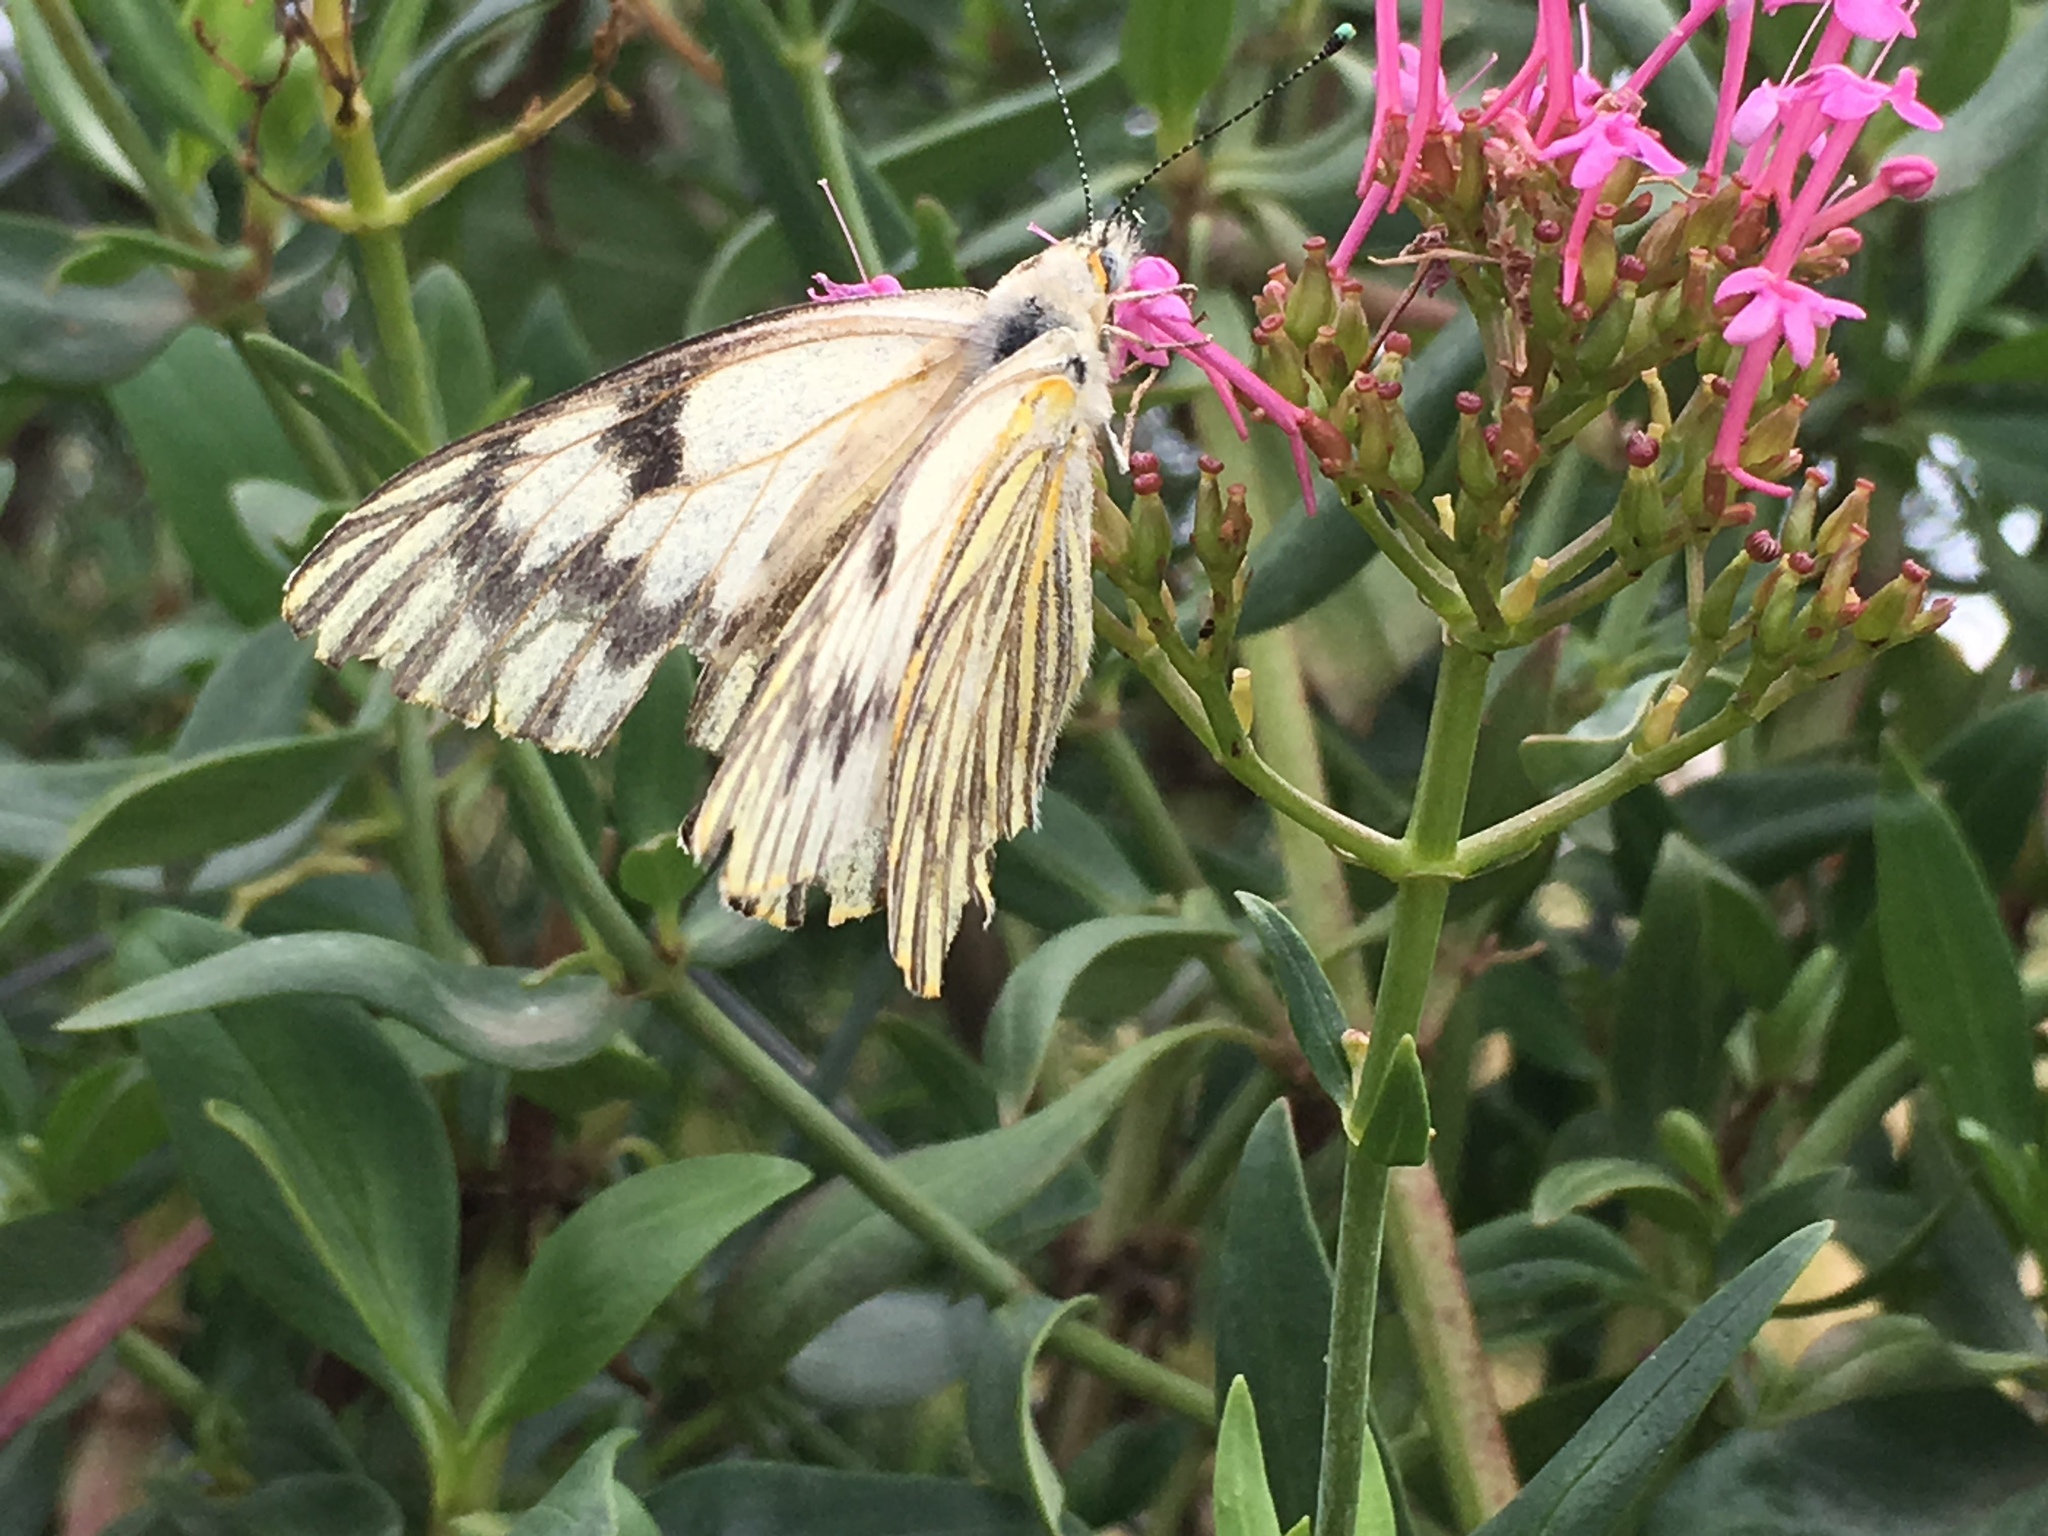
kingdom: Animalia
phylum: Arthropoda
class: Insecta
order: Lepidoptera
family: Pieridae
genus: Tatochila
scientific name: Tatochila mercedis
